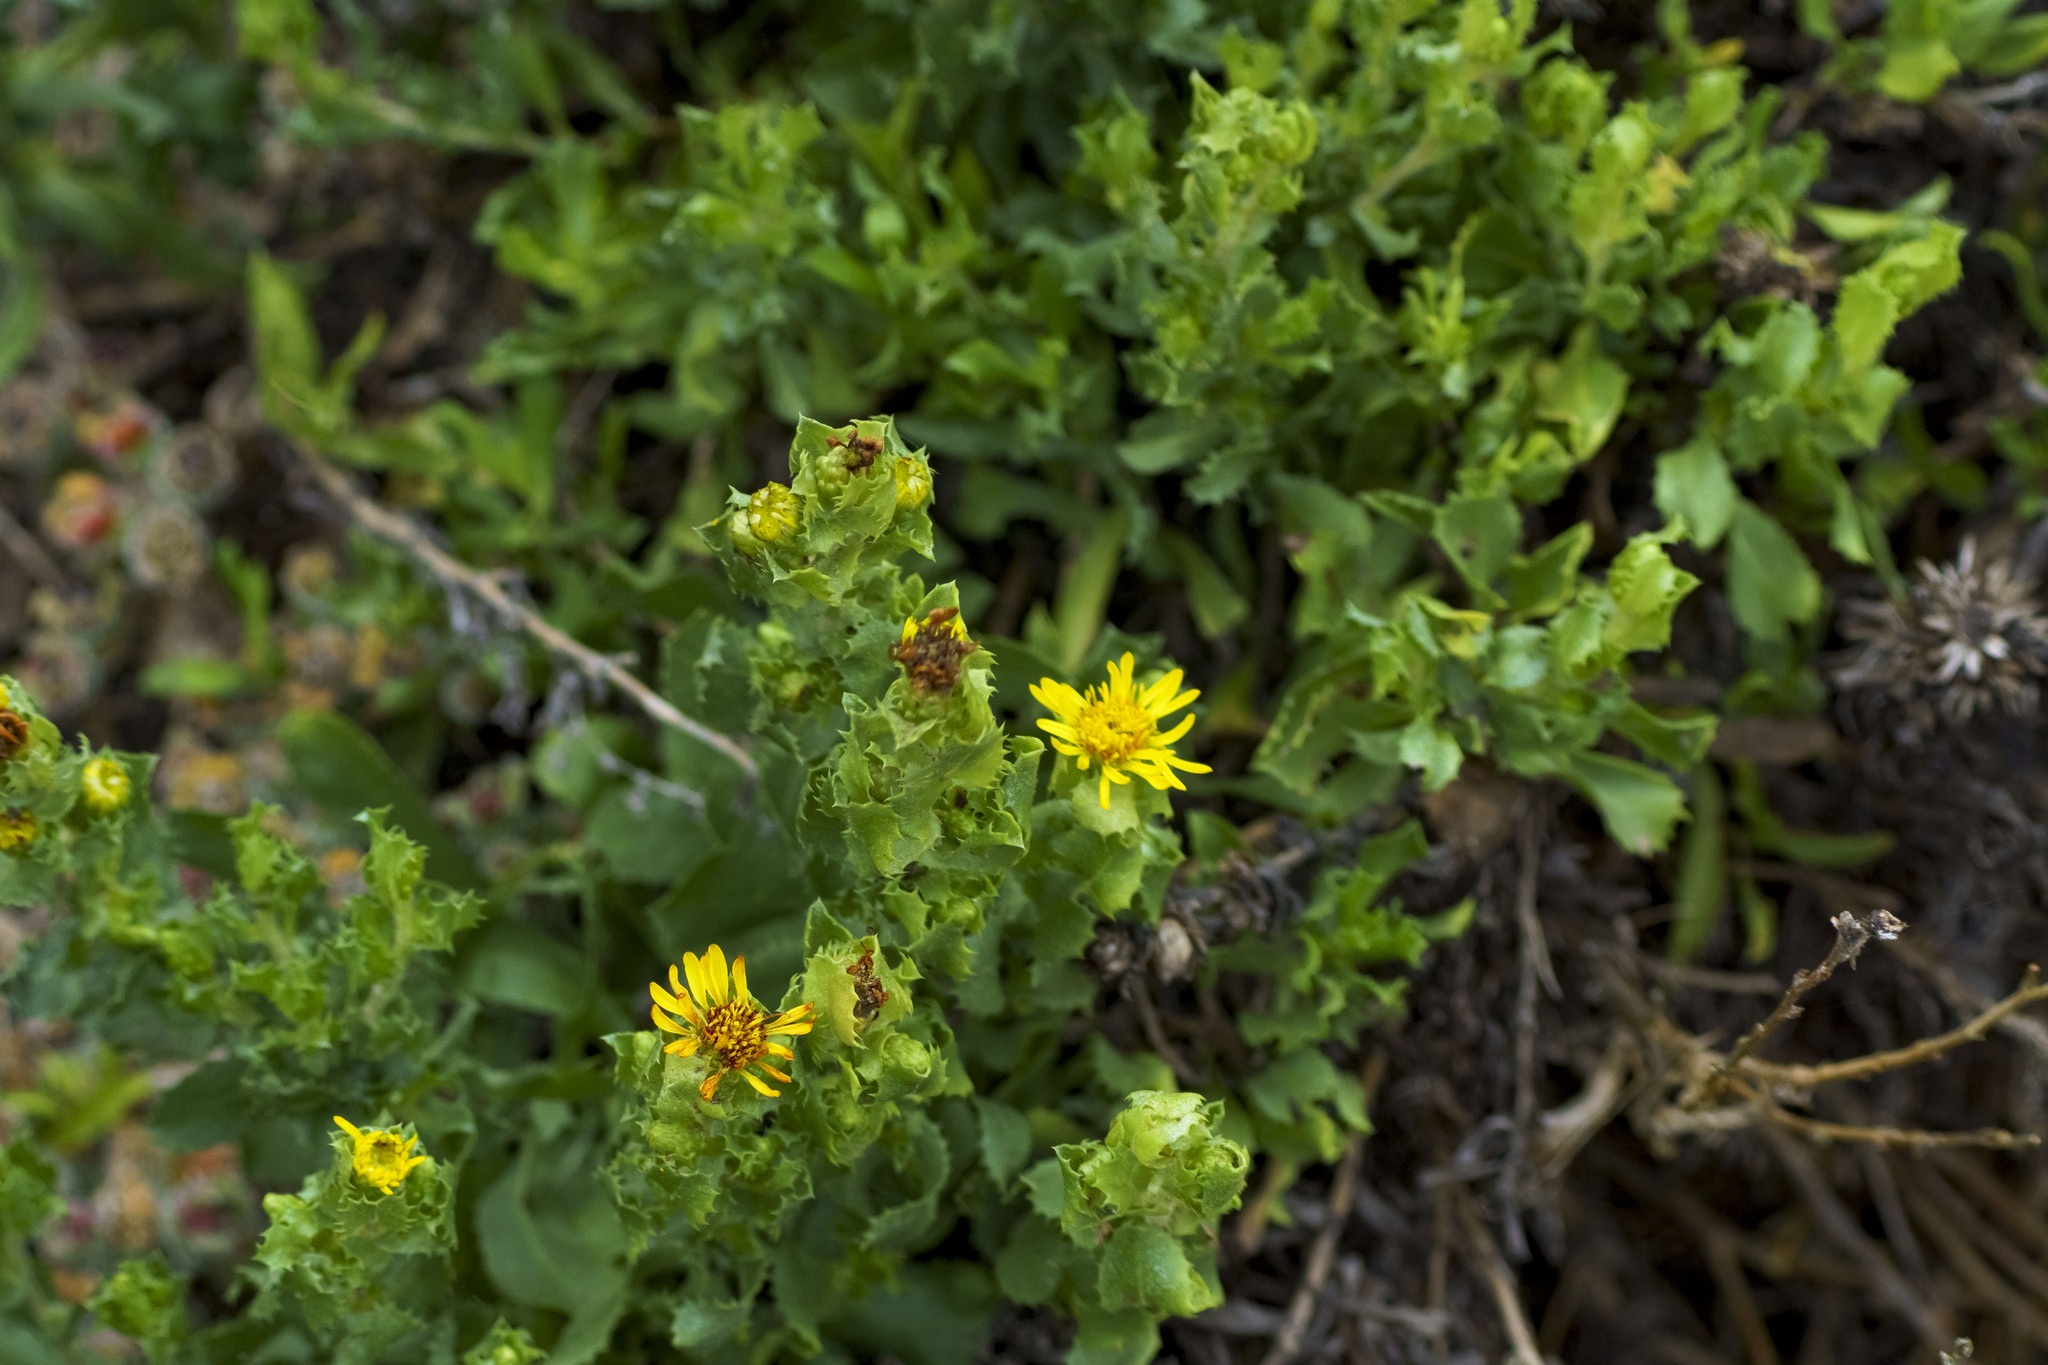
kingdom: Plantae
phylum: Tracheophyta
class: Magnoliopsida
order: Asterales
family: Asteraceae
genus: Hazardia
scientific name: Hazardia berberidis
